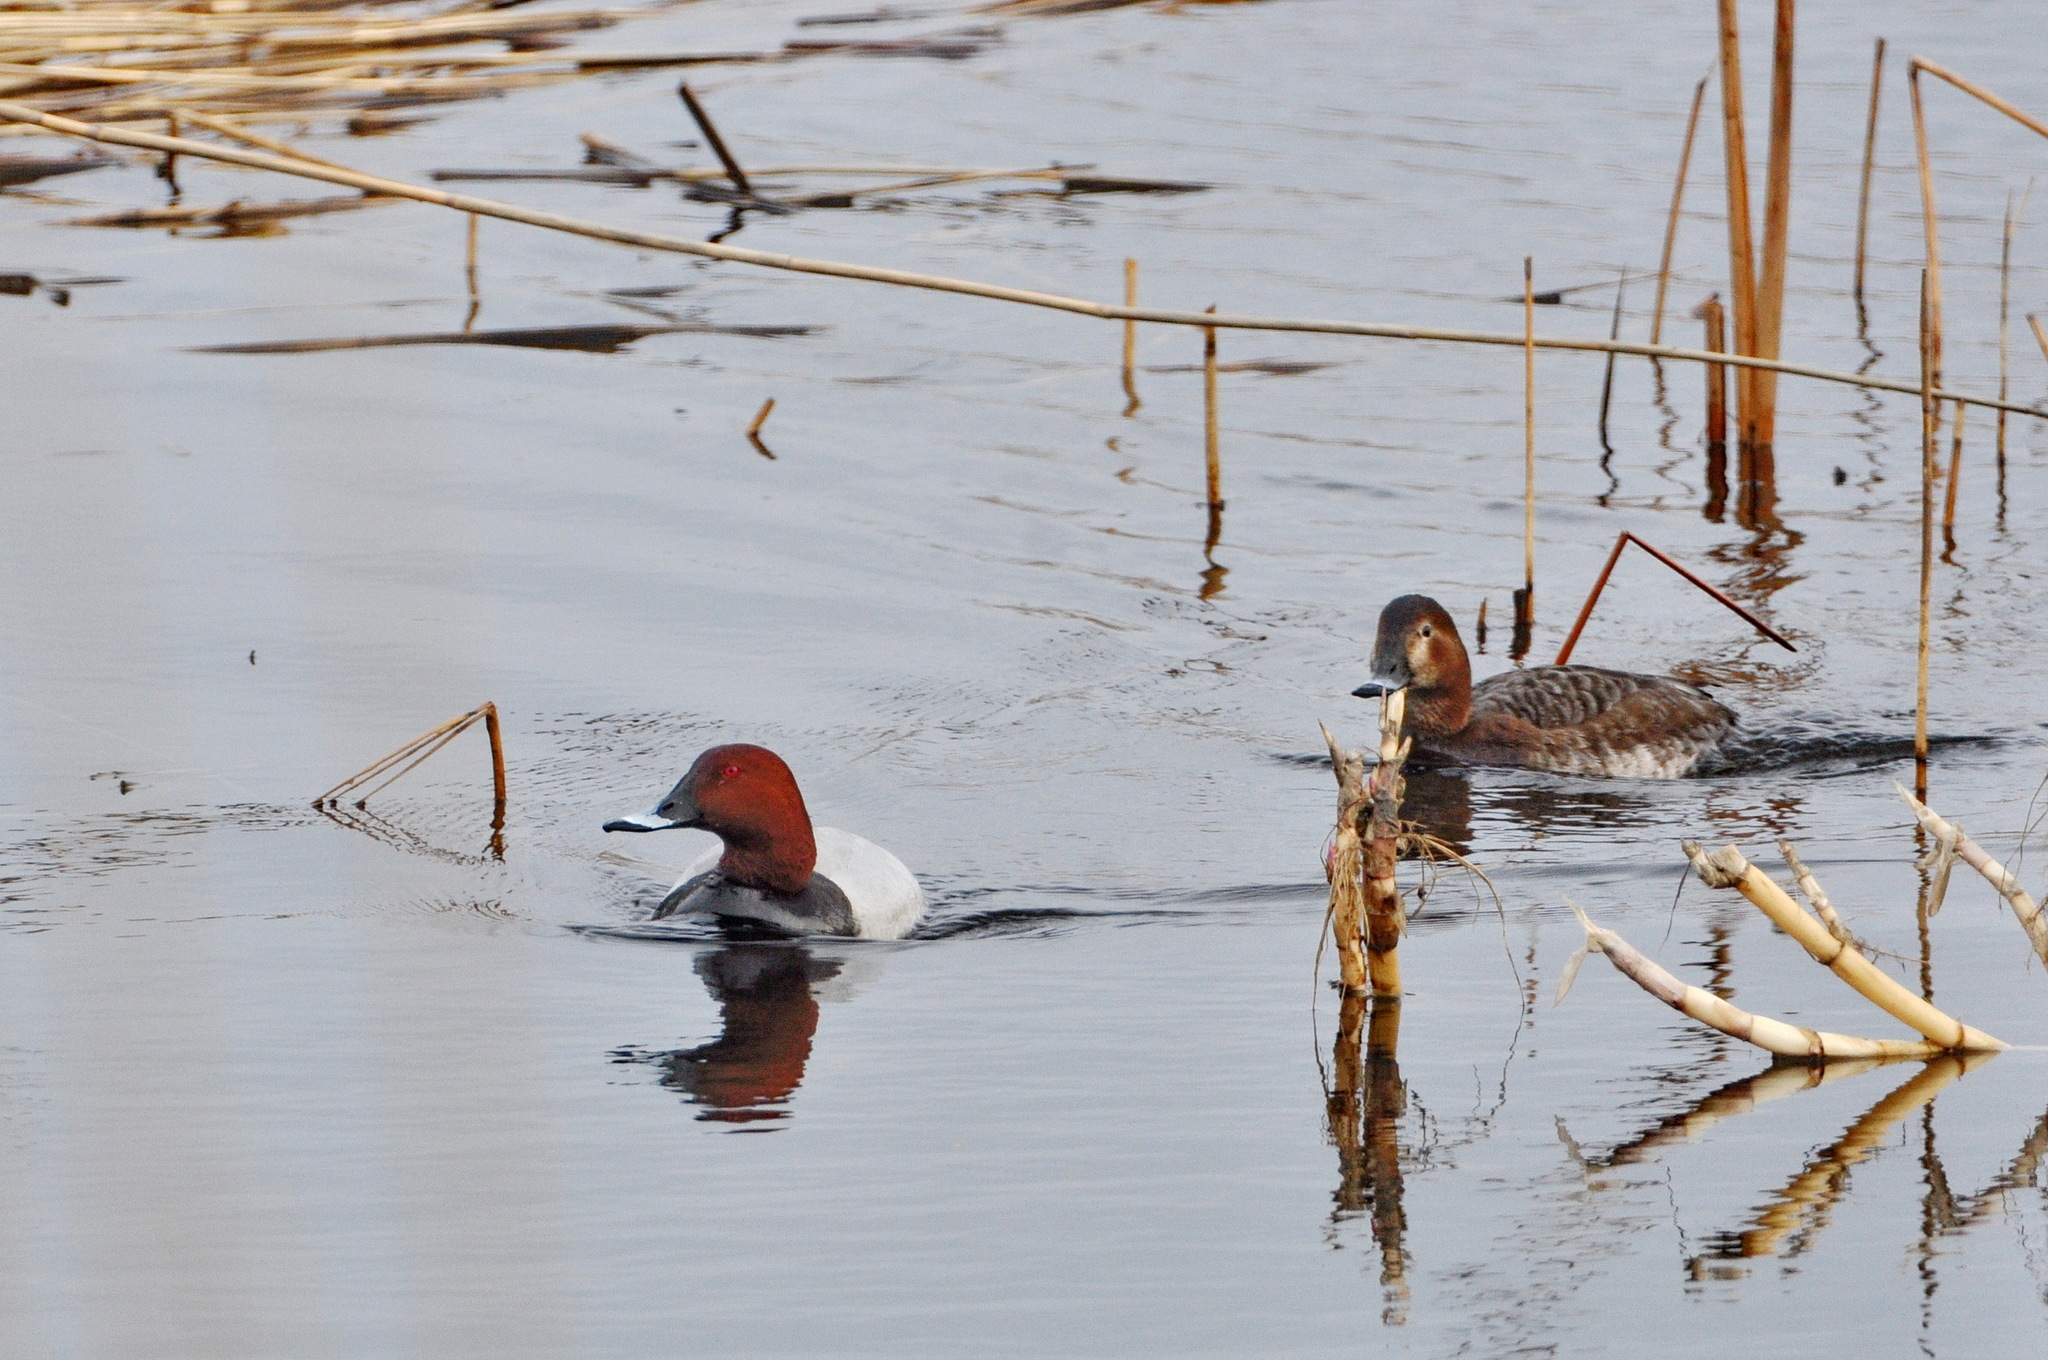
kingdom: Animalia
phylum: Chordata
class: Aves
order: Anseriformes
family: Anatidae
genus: Aythya
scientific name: Aythya ferina
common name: Common pochard
